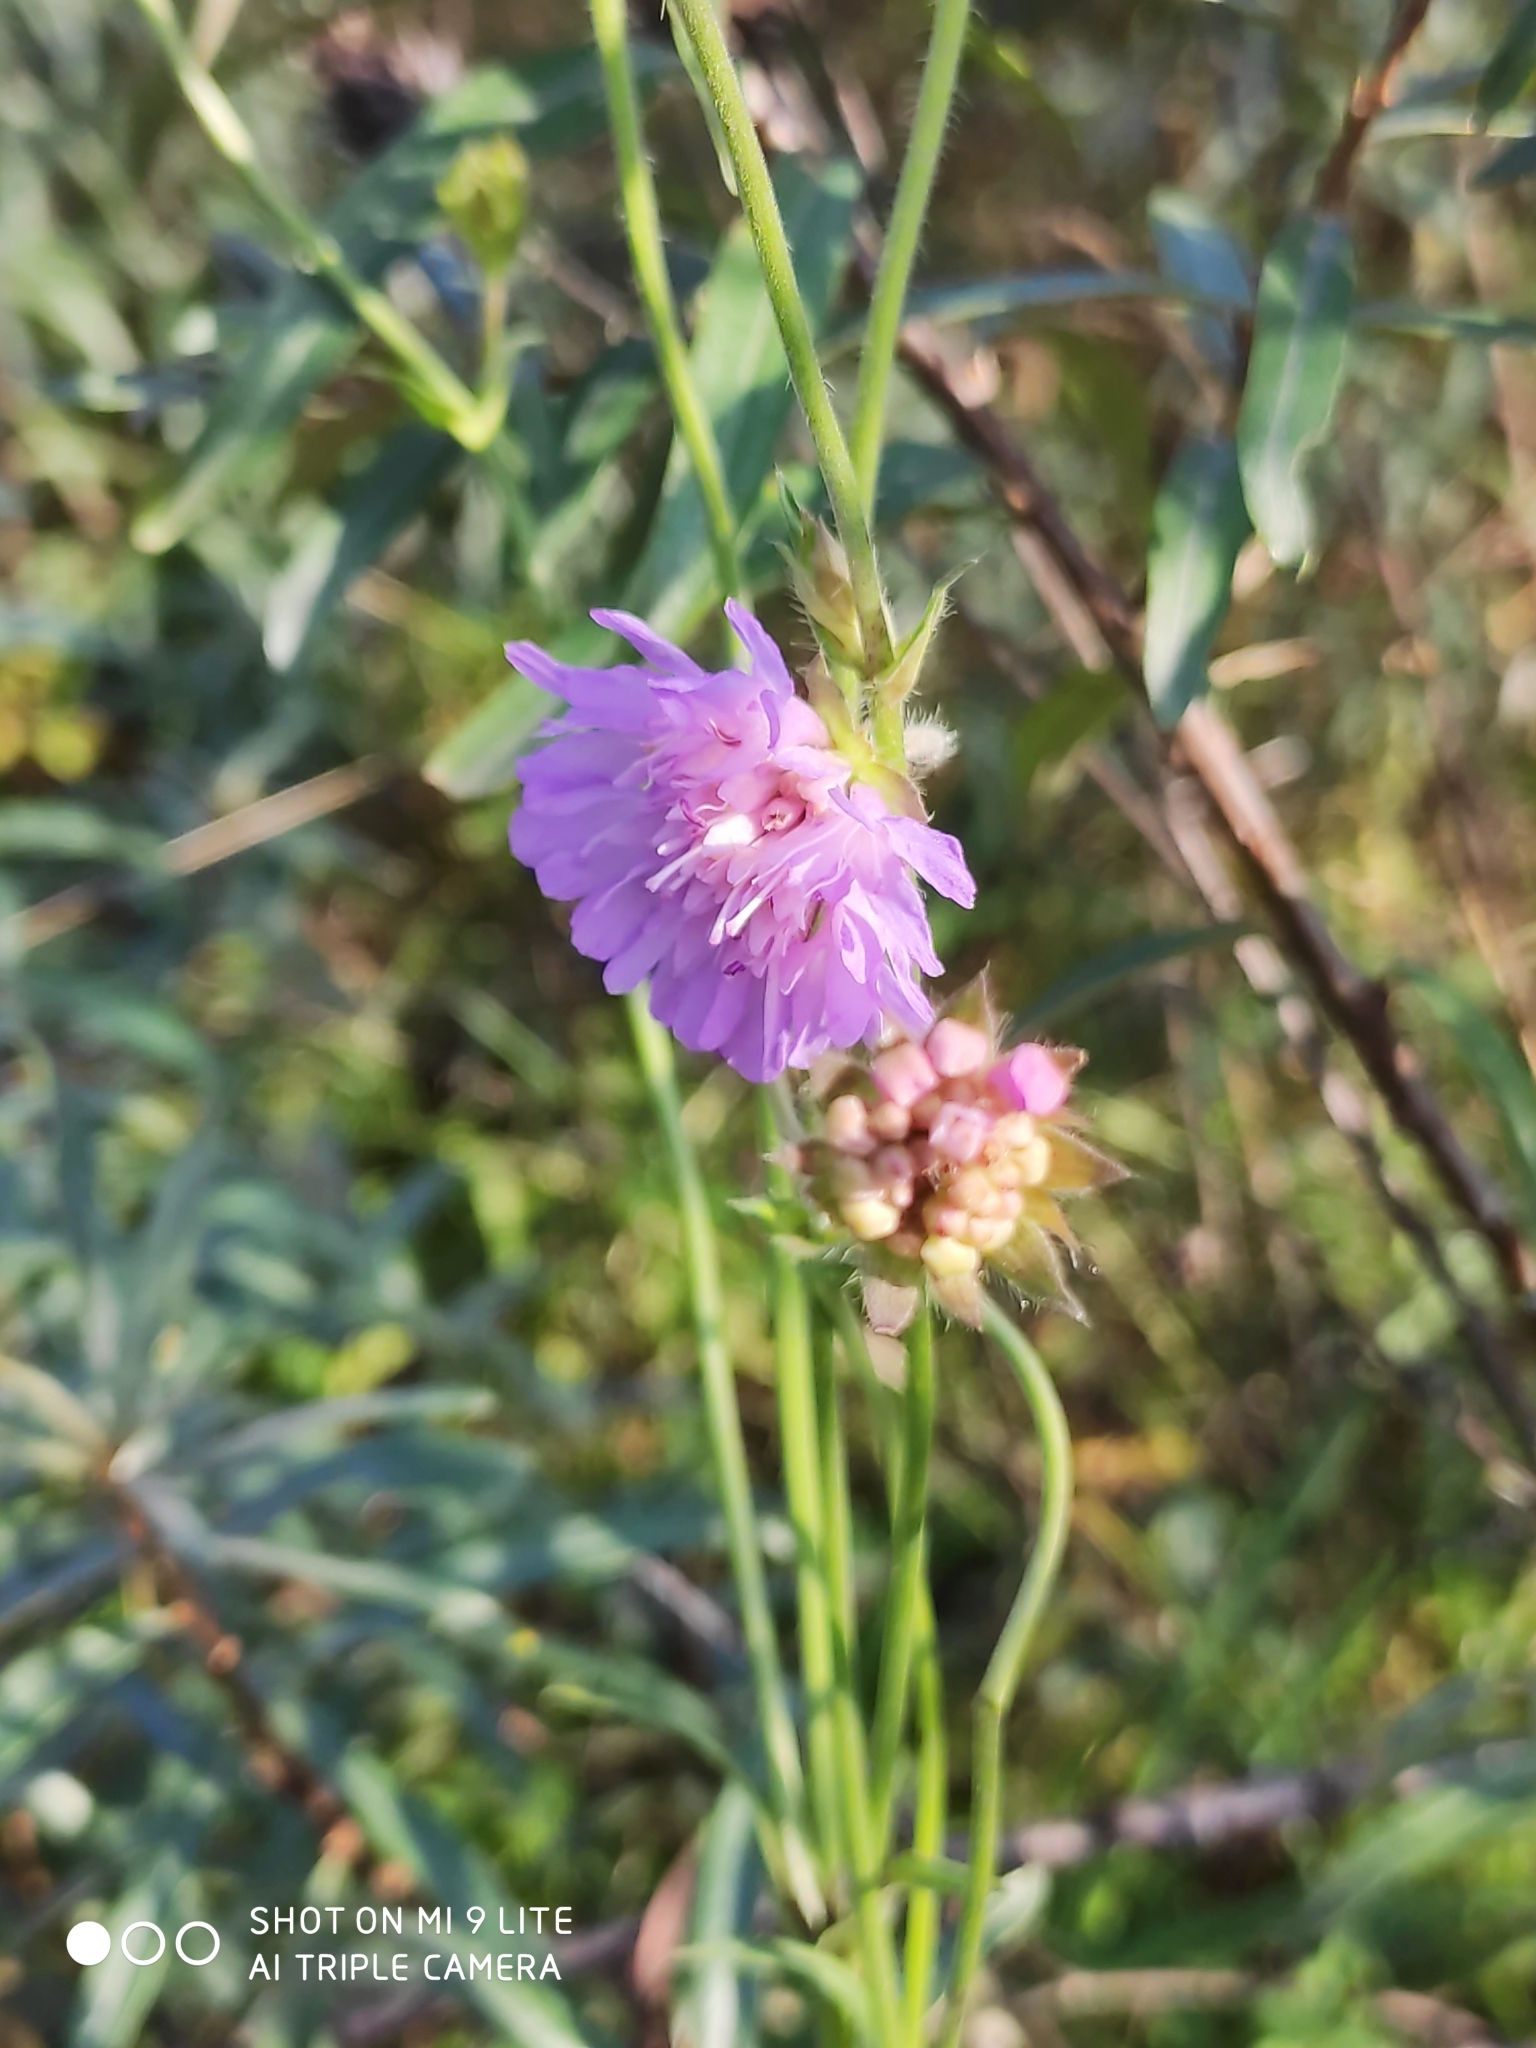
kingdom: Plantae
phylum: Tracheophyta
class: Magnoliopsida
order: Dipsacales
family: Caprifoliaceae
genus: Knautia
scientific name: Knautia arvensis
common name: Field scabiosa
